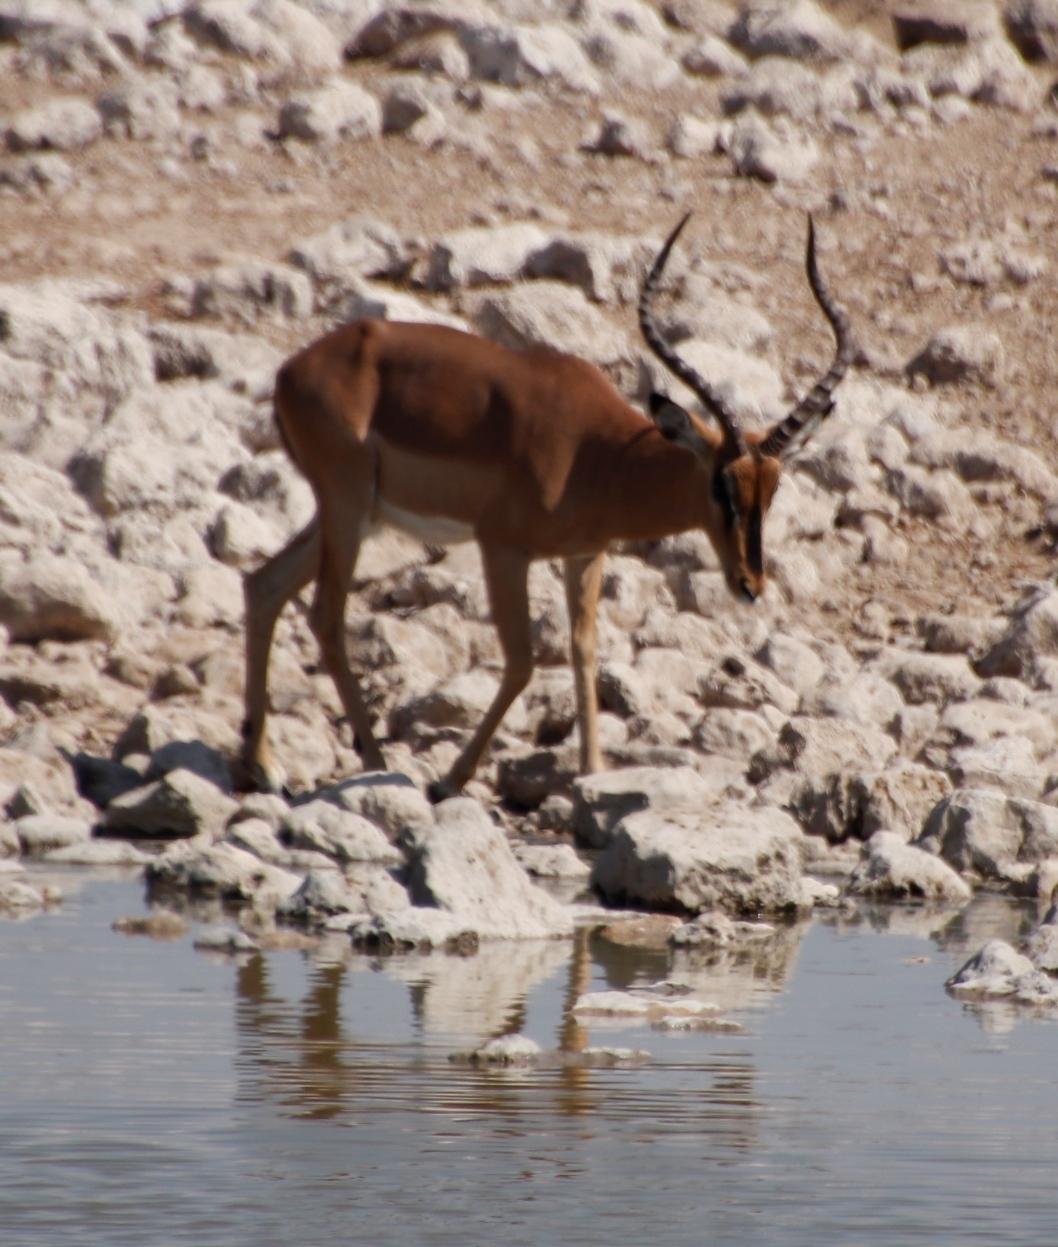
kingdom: Animalia
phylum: Chordata
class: Mammalia
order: Artiodactyla
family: Bovidae
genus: Aepyceros
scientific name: Aepyceros melampus
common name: Impala
